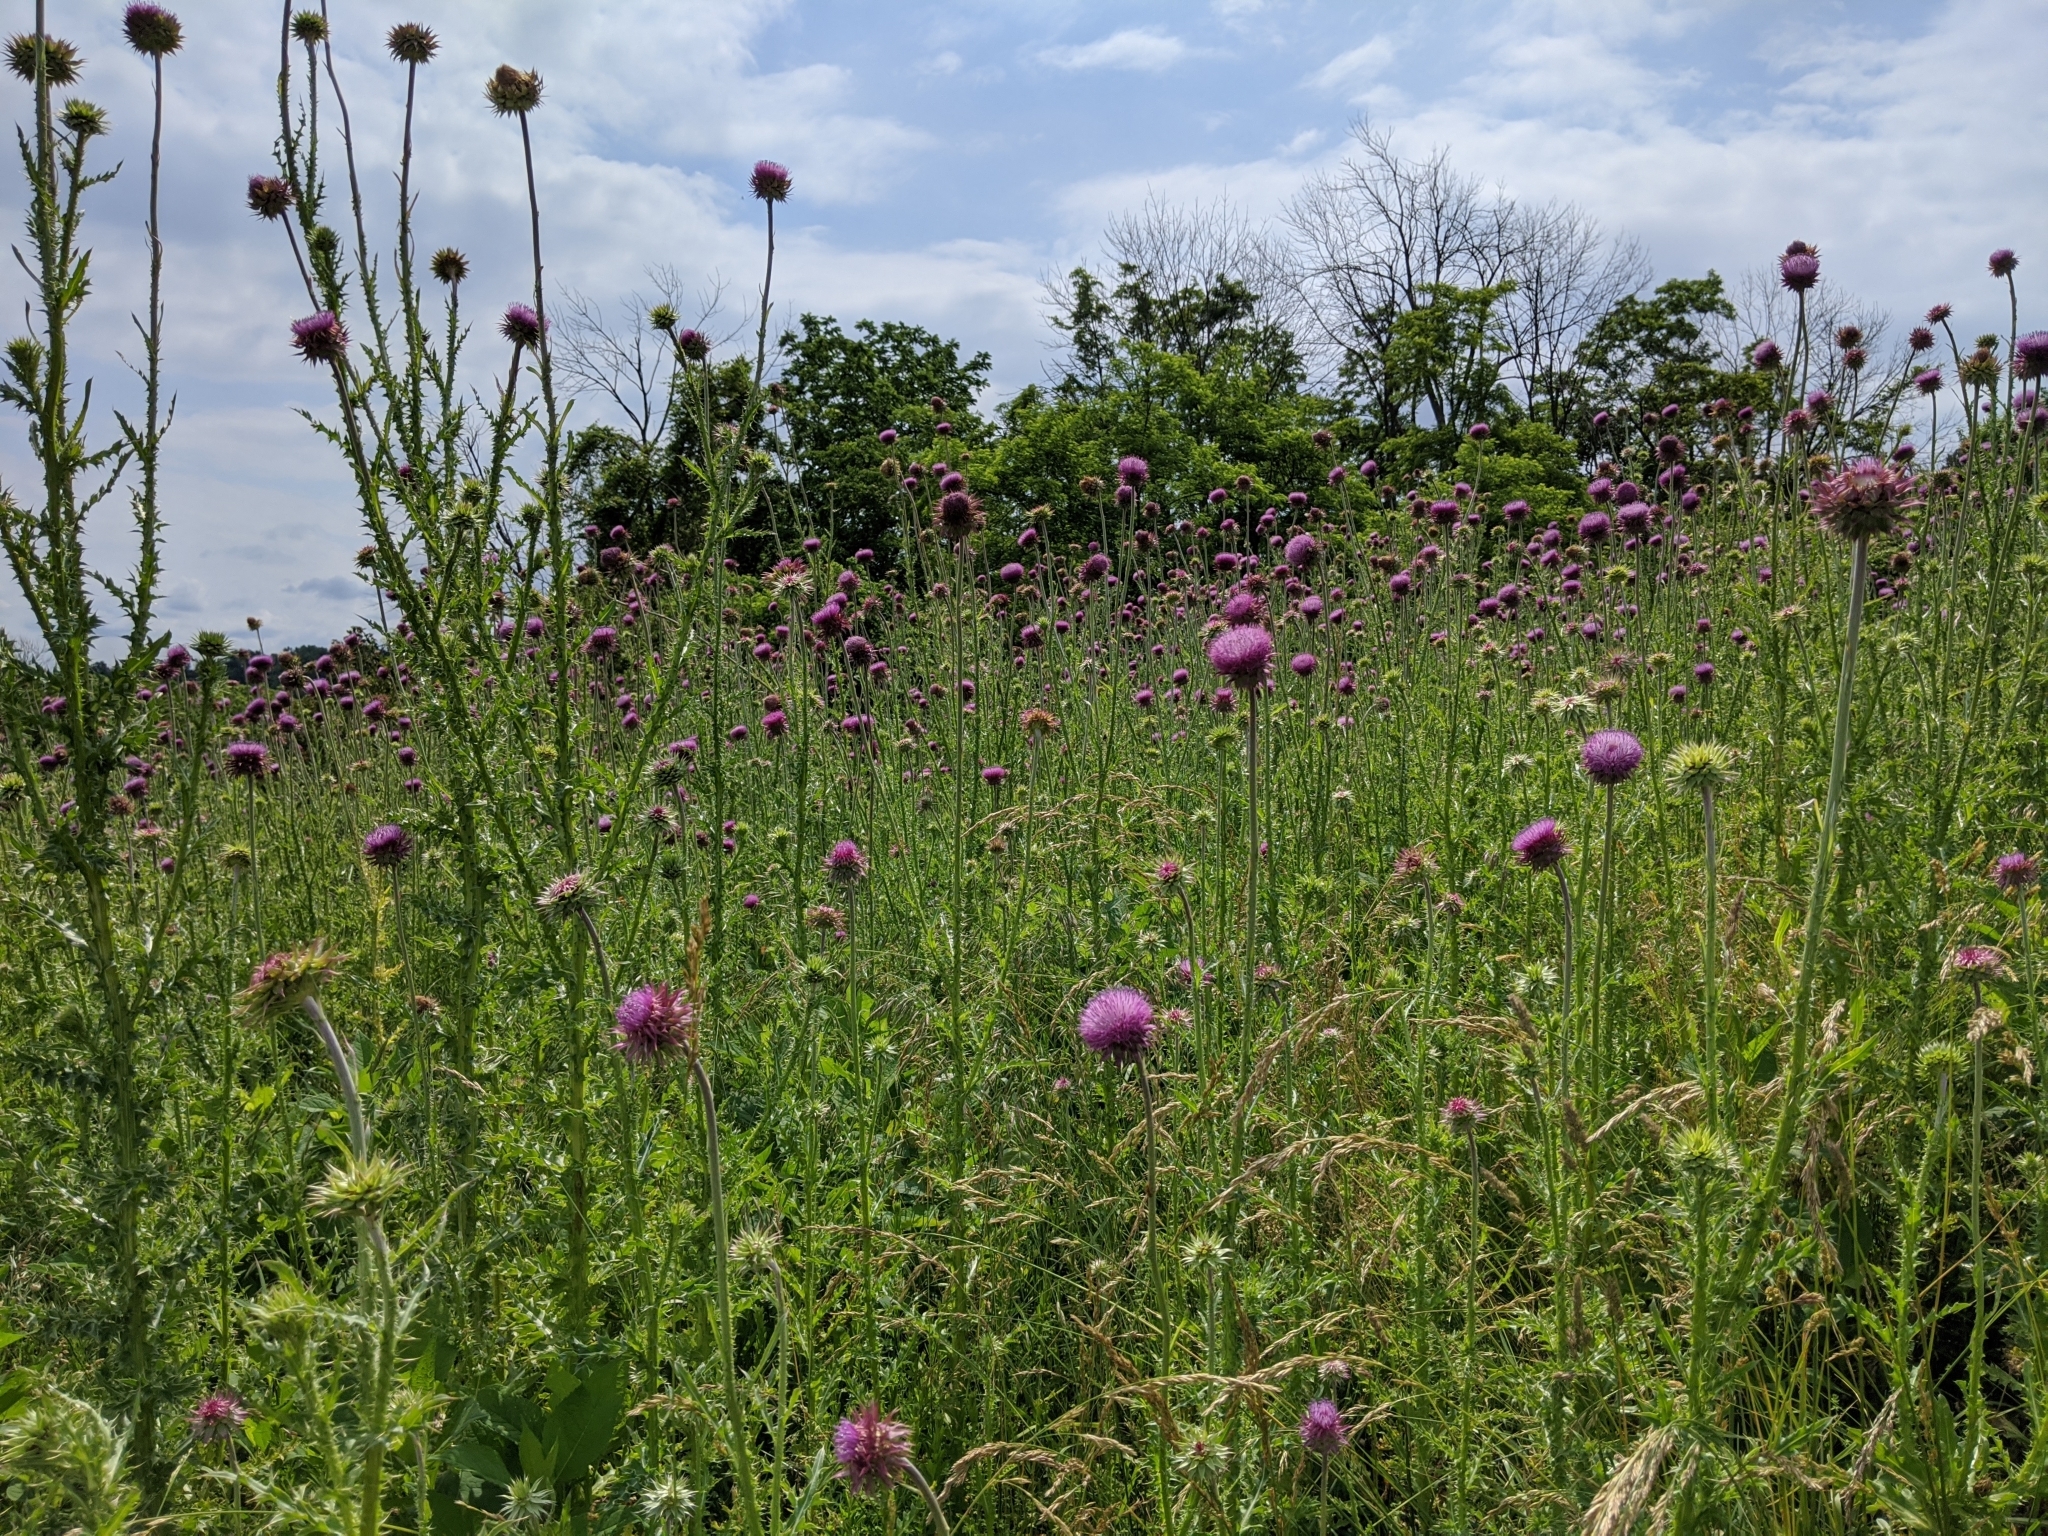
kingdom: Plantae
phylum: Tracheophyta
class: Magnoliopsida
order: Asterales
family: Asteraceae
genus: Carduus
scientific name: Carduus nutans
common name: Musk thistle
